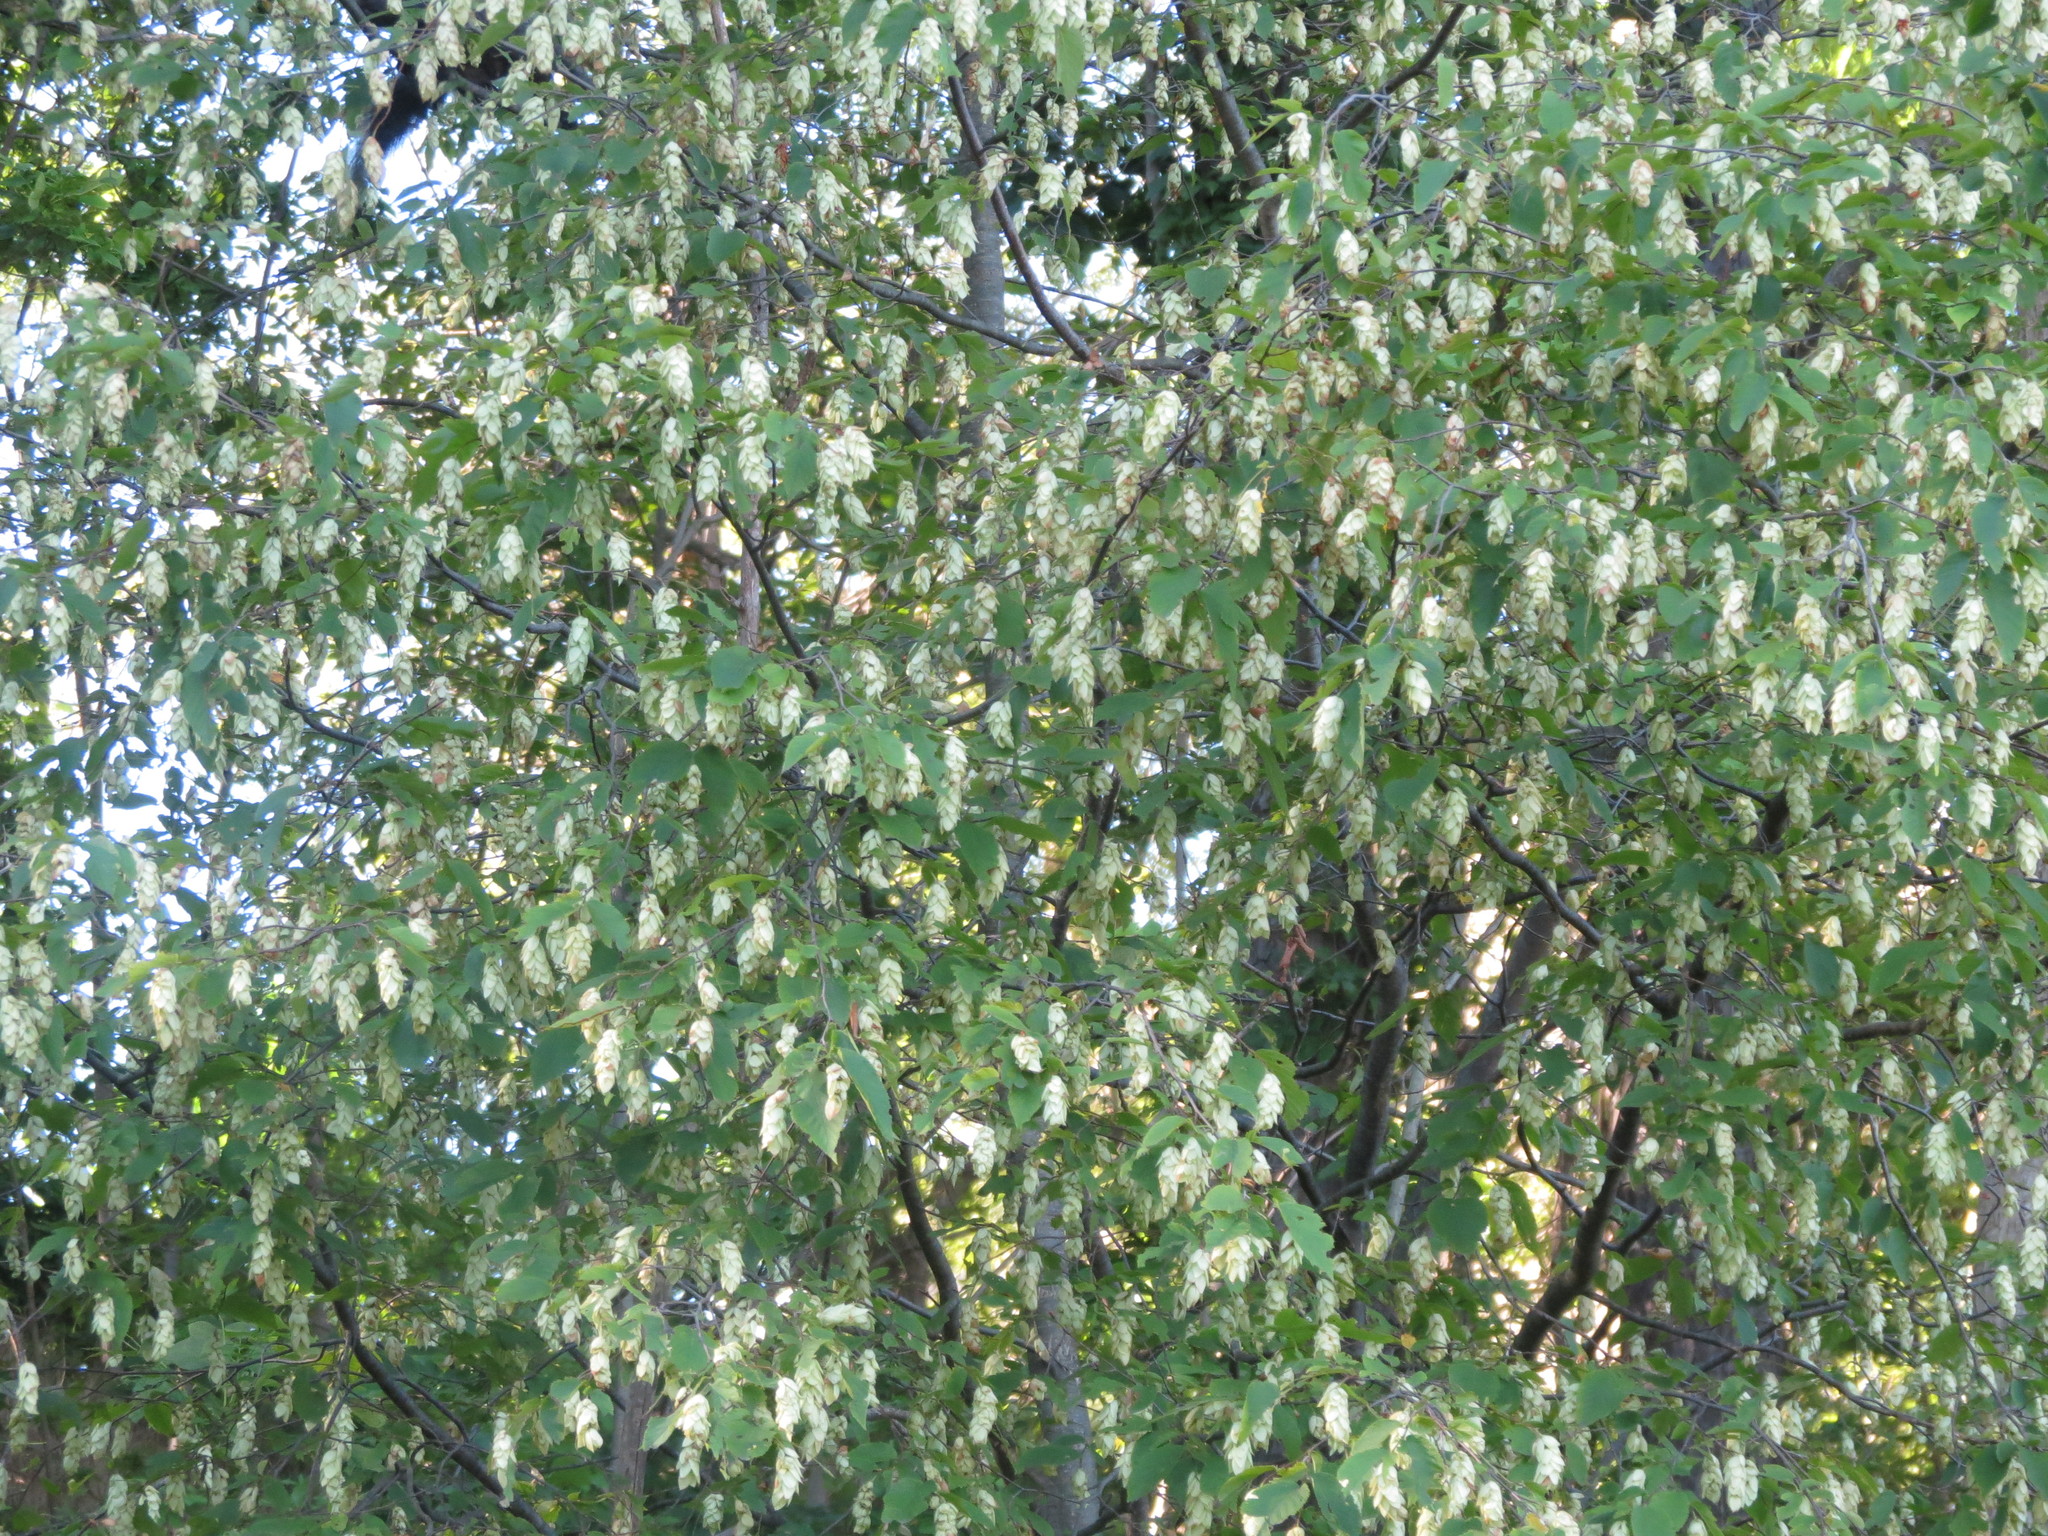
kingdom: Plantae
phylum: Tracheophyta
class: Magnoliopsida
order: Fagales
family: Betulaceae
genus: Ostrya
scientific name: Ostrya virginiana
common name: Ironwood
